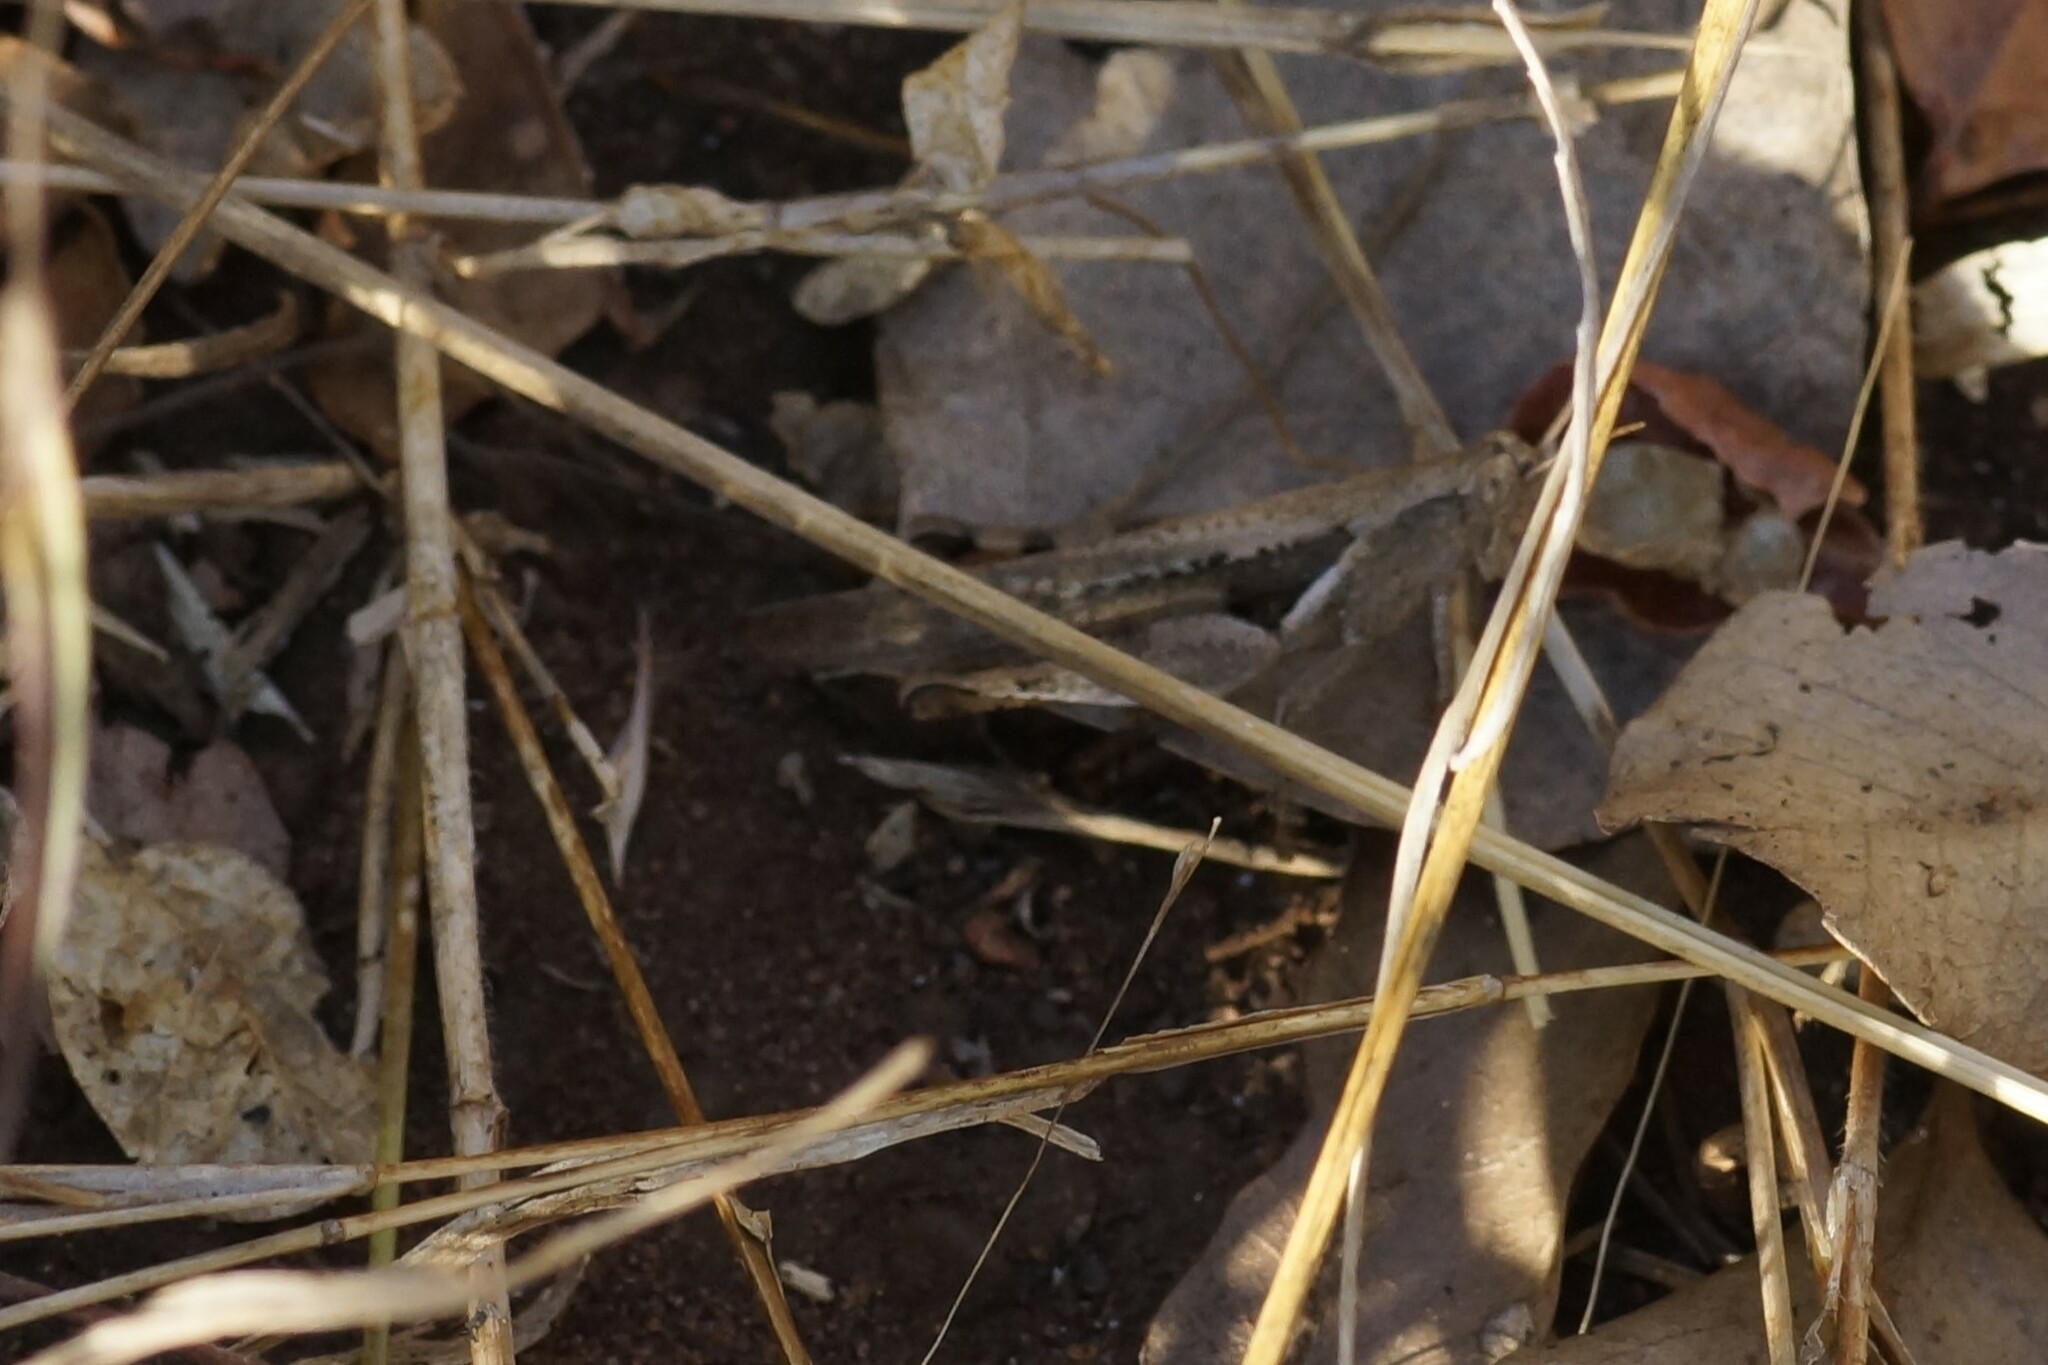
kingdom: Animalia
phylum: Arthropoda
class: Insecta
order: Orthoptera
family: Acrididae
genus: Stenocatantops
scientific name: Stenocatantops angustifrons
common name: Common tropical sharptail
